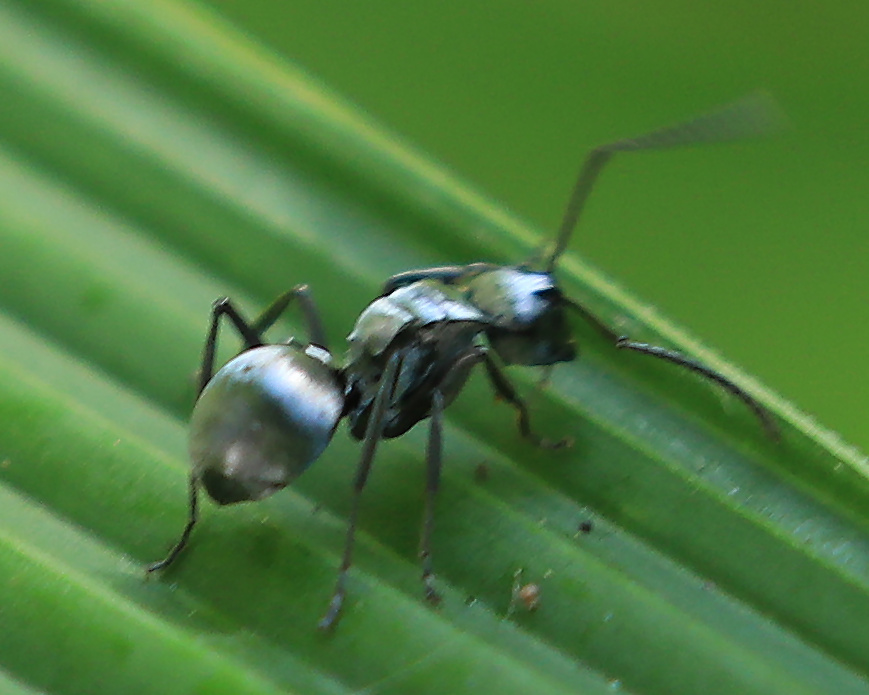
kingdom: Animalia
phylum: Arthropoda
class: Insecta
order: Hymenoptera
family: Formicidae
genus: Polyrhachis
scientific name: Polyrhachis schlueteri
